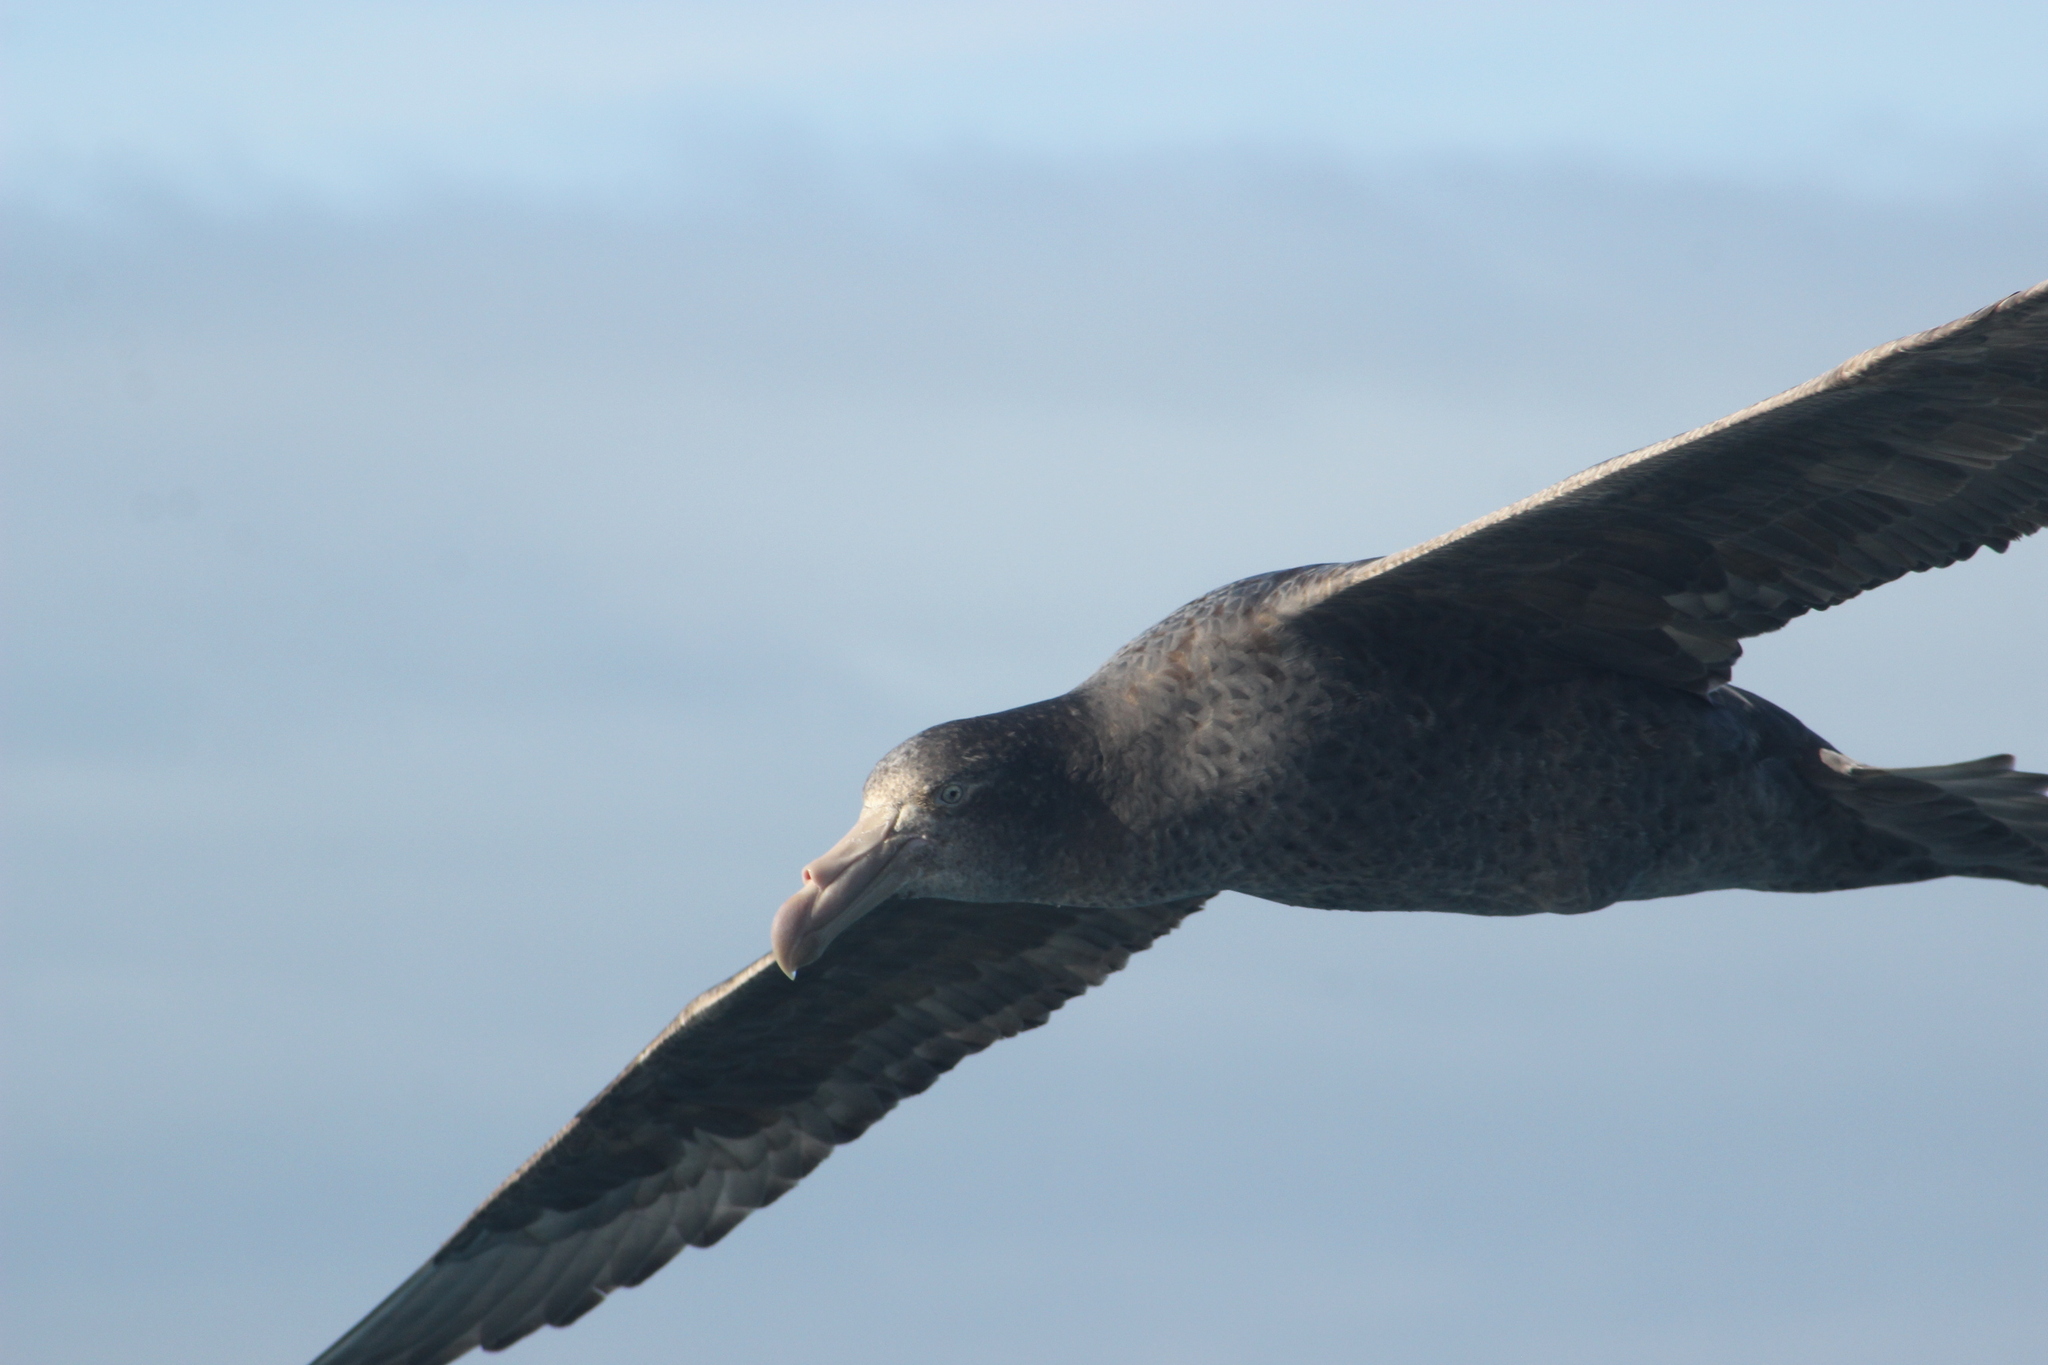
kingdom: Animalia
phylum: Chordata
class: Aves
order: Procellariiformes
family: Procellariidae
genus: Macronectes
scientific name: Macronectes halli
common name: Northern giant petrel
